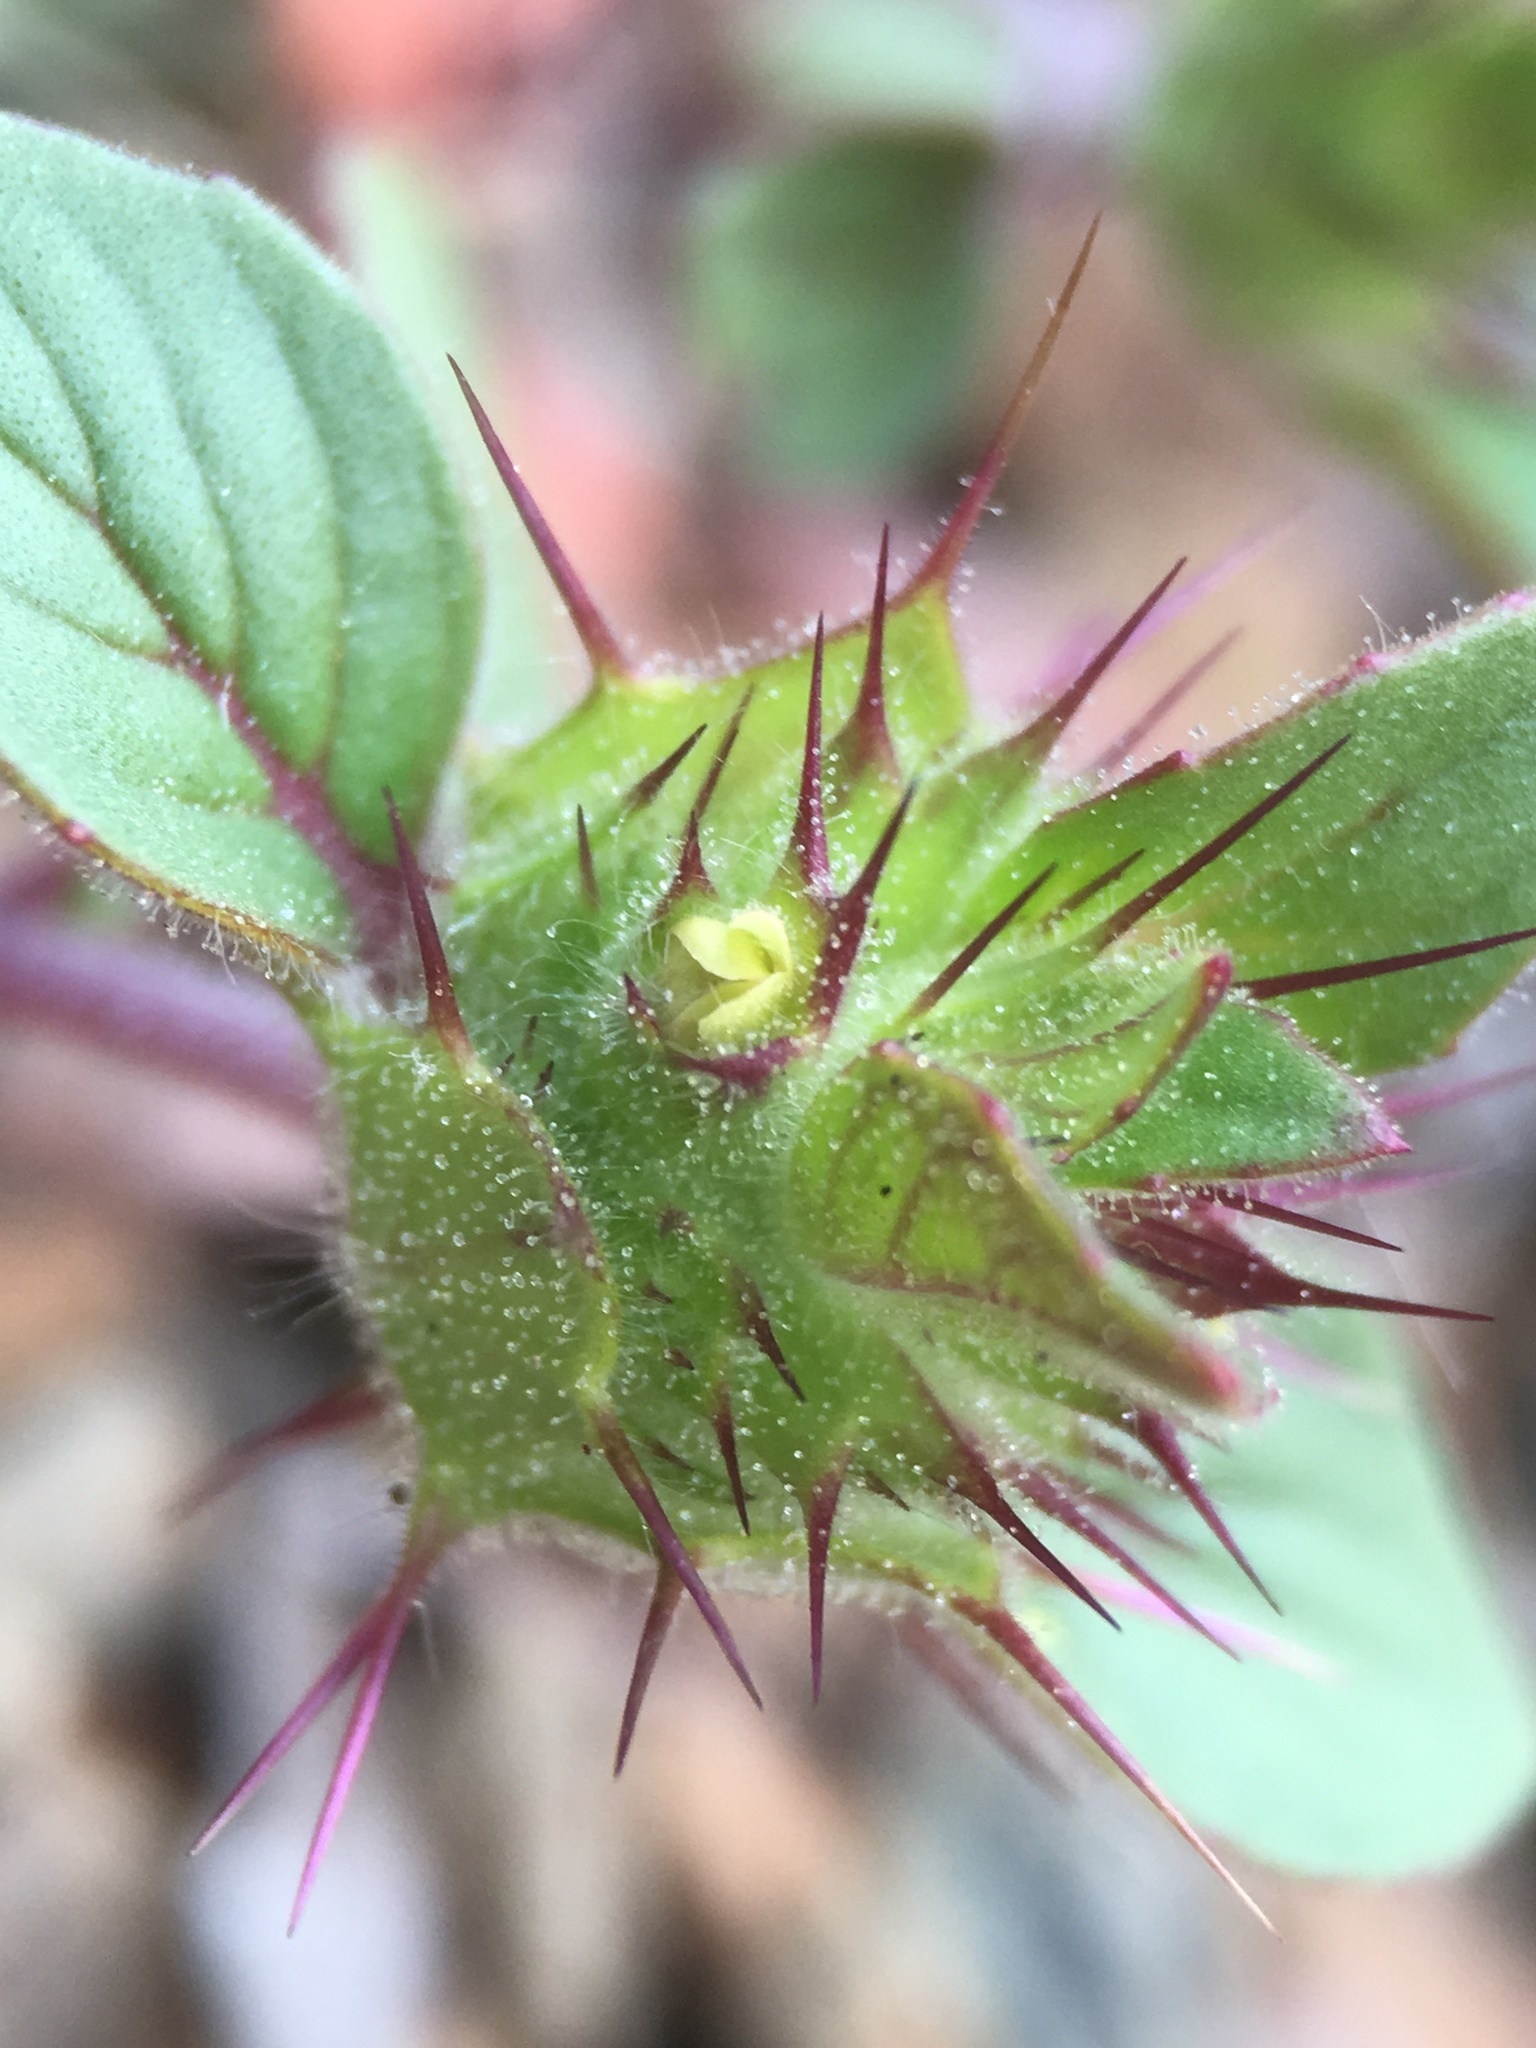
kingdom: Plantae
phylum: Tracheophyta
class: Magnoliopsida
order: Lamiales
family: Lamiaceae
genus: Acanthomintha
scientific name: Acanthomintha lanceolata
